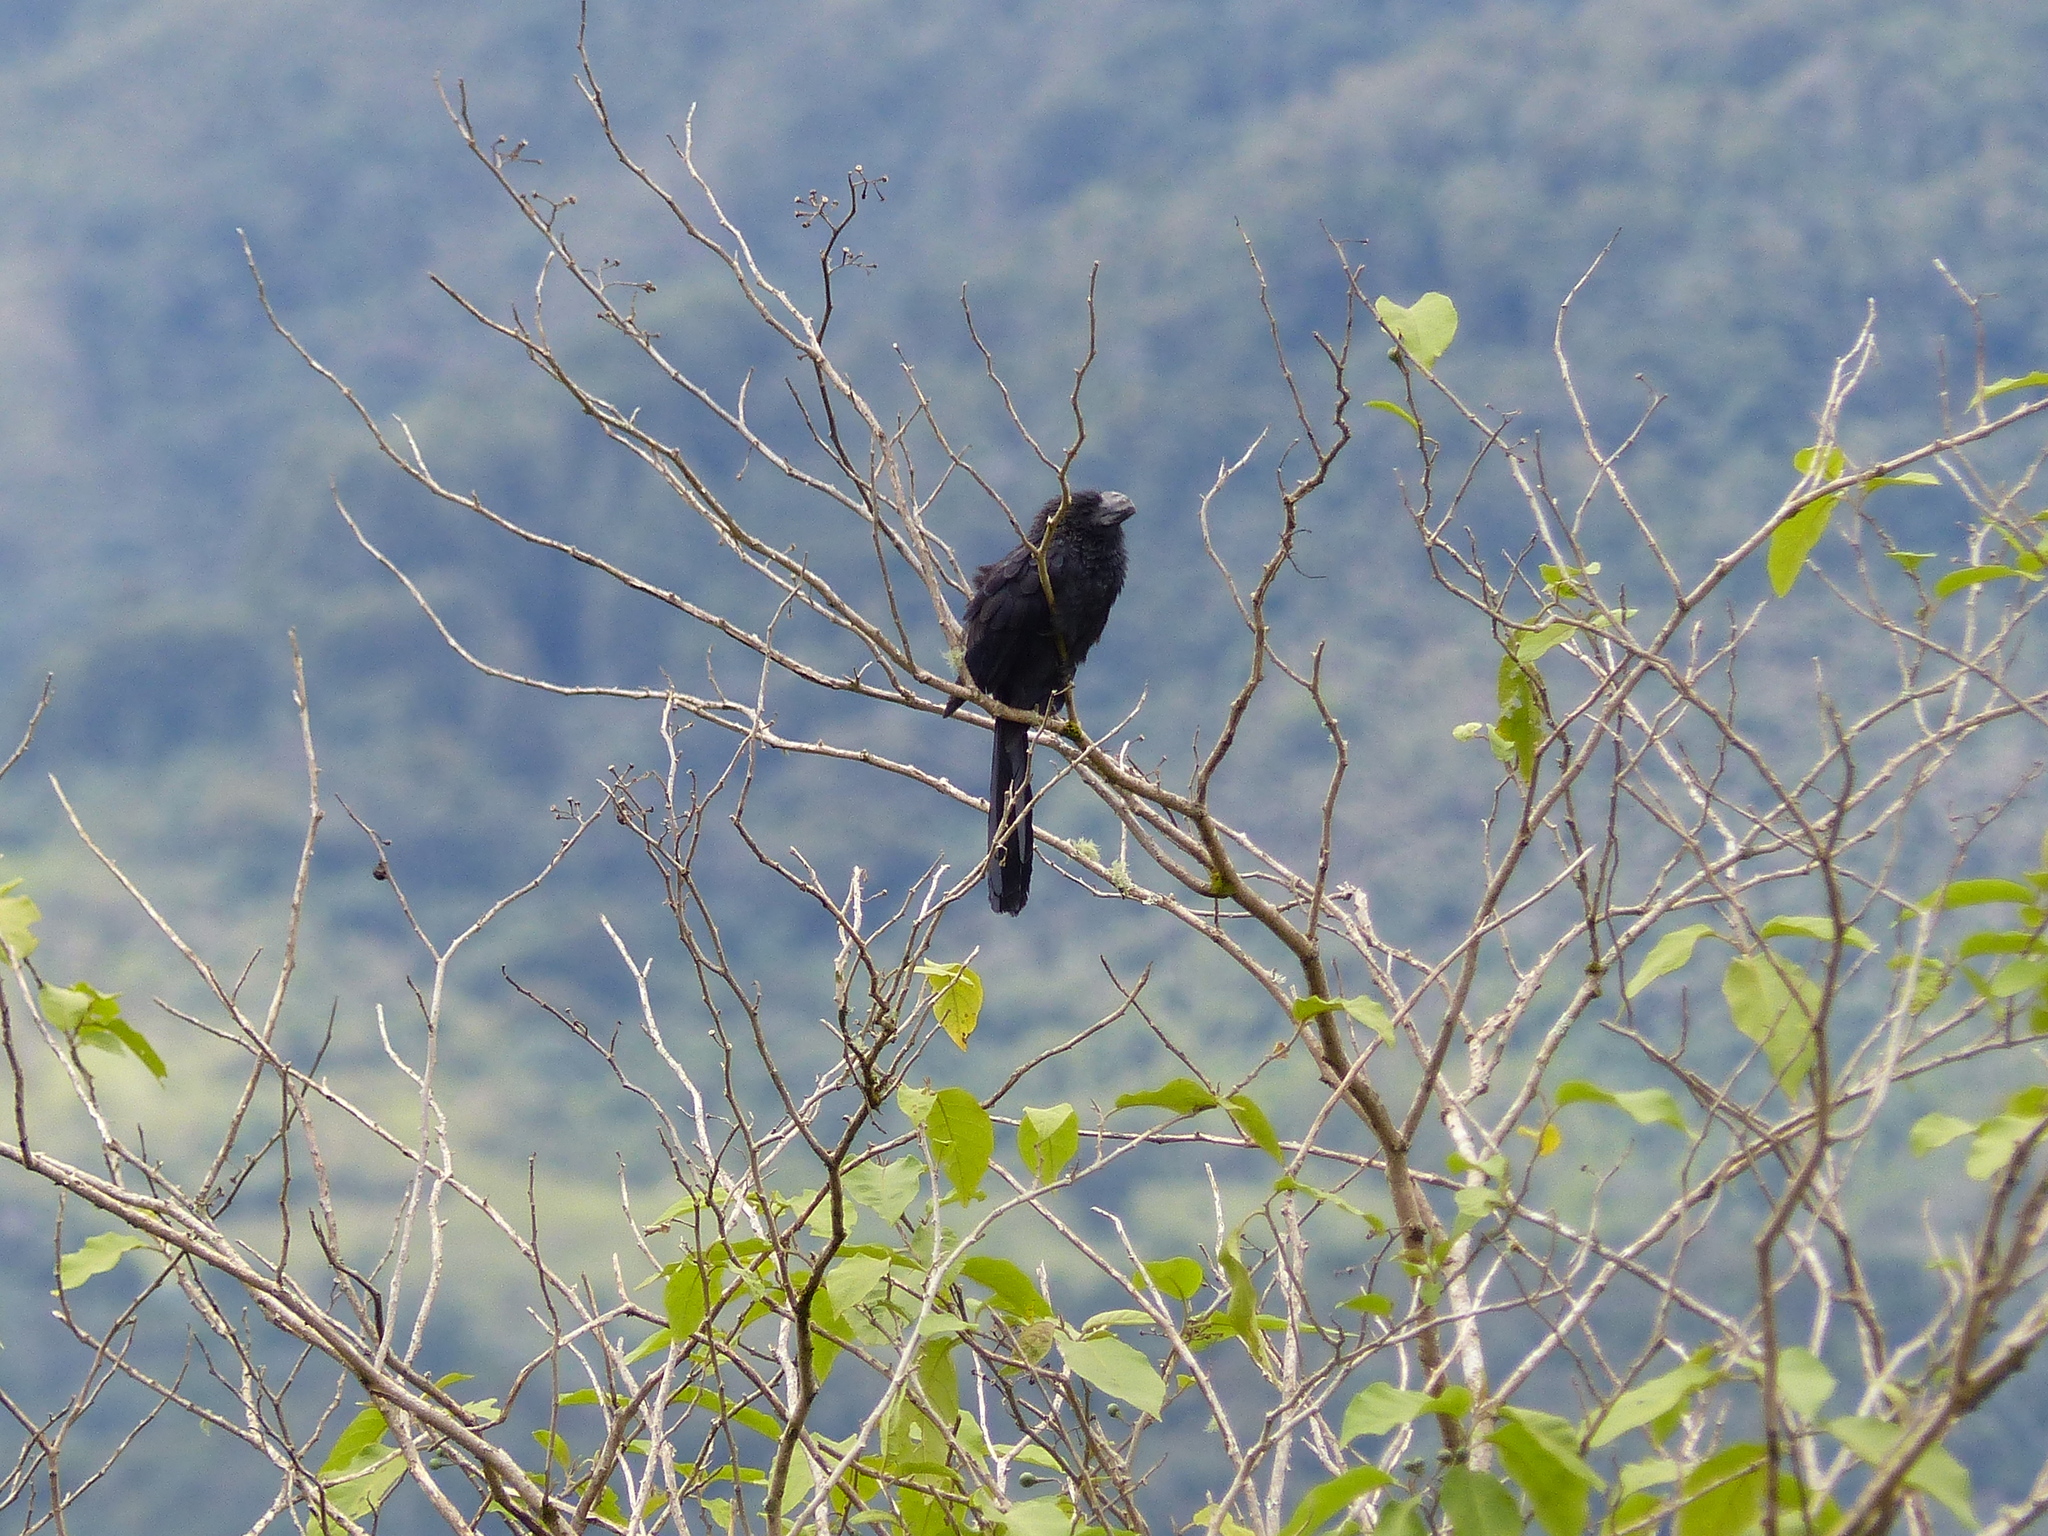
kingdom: Animalia
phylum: Chordata
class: Aves
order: Cuculiformes
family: Cuculidae
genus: Crotophaga
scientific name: Crotophaga ani
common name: Smooth-billed ani
